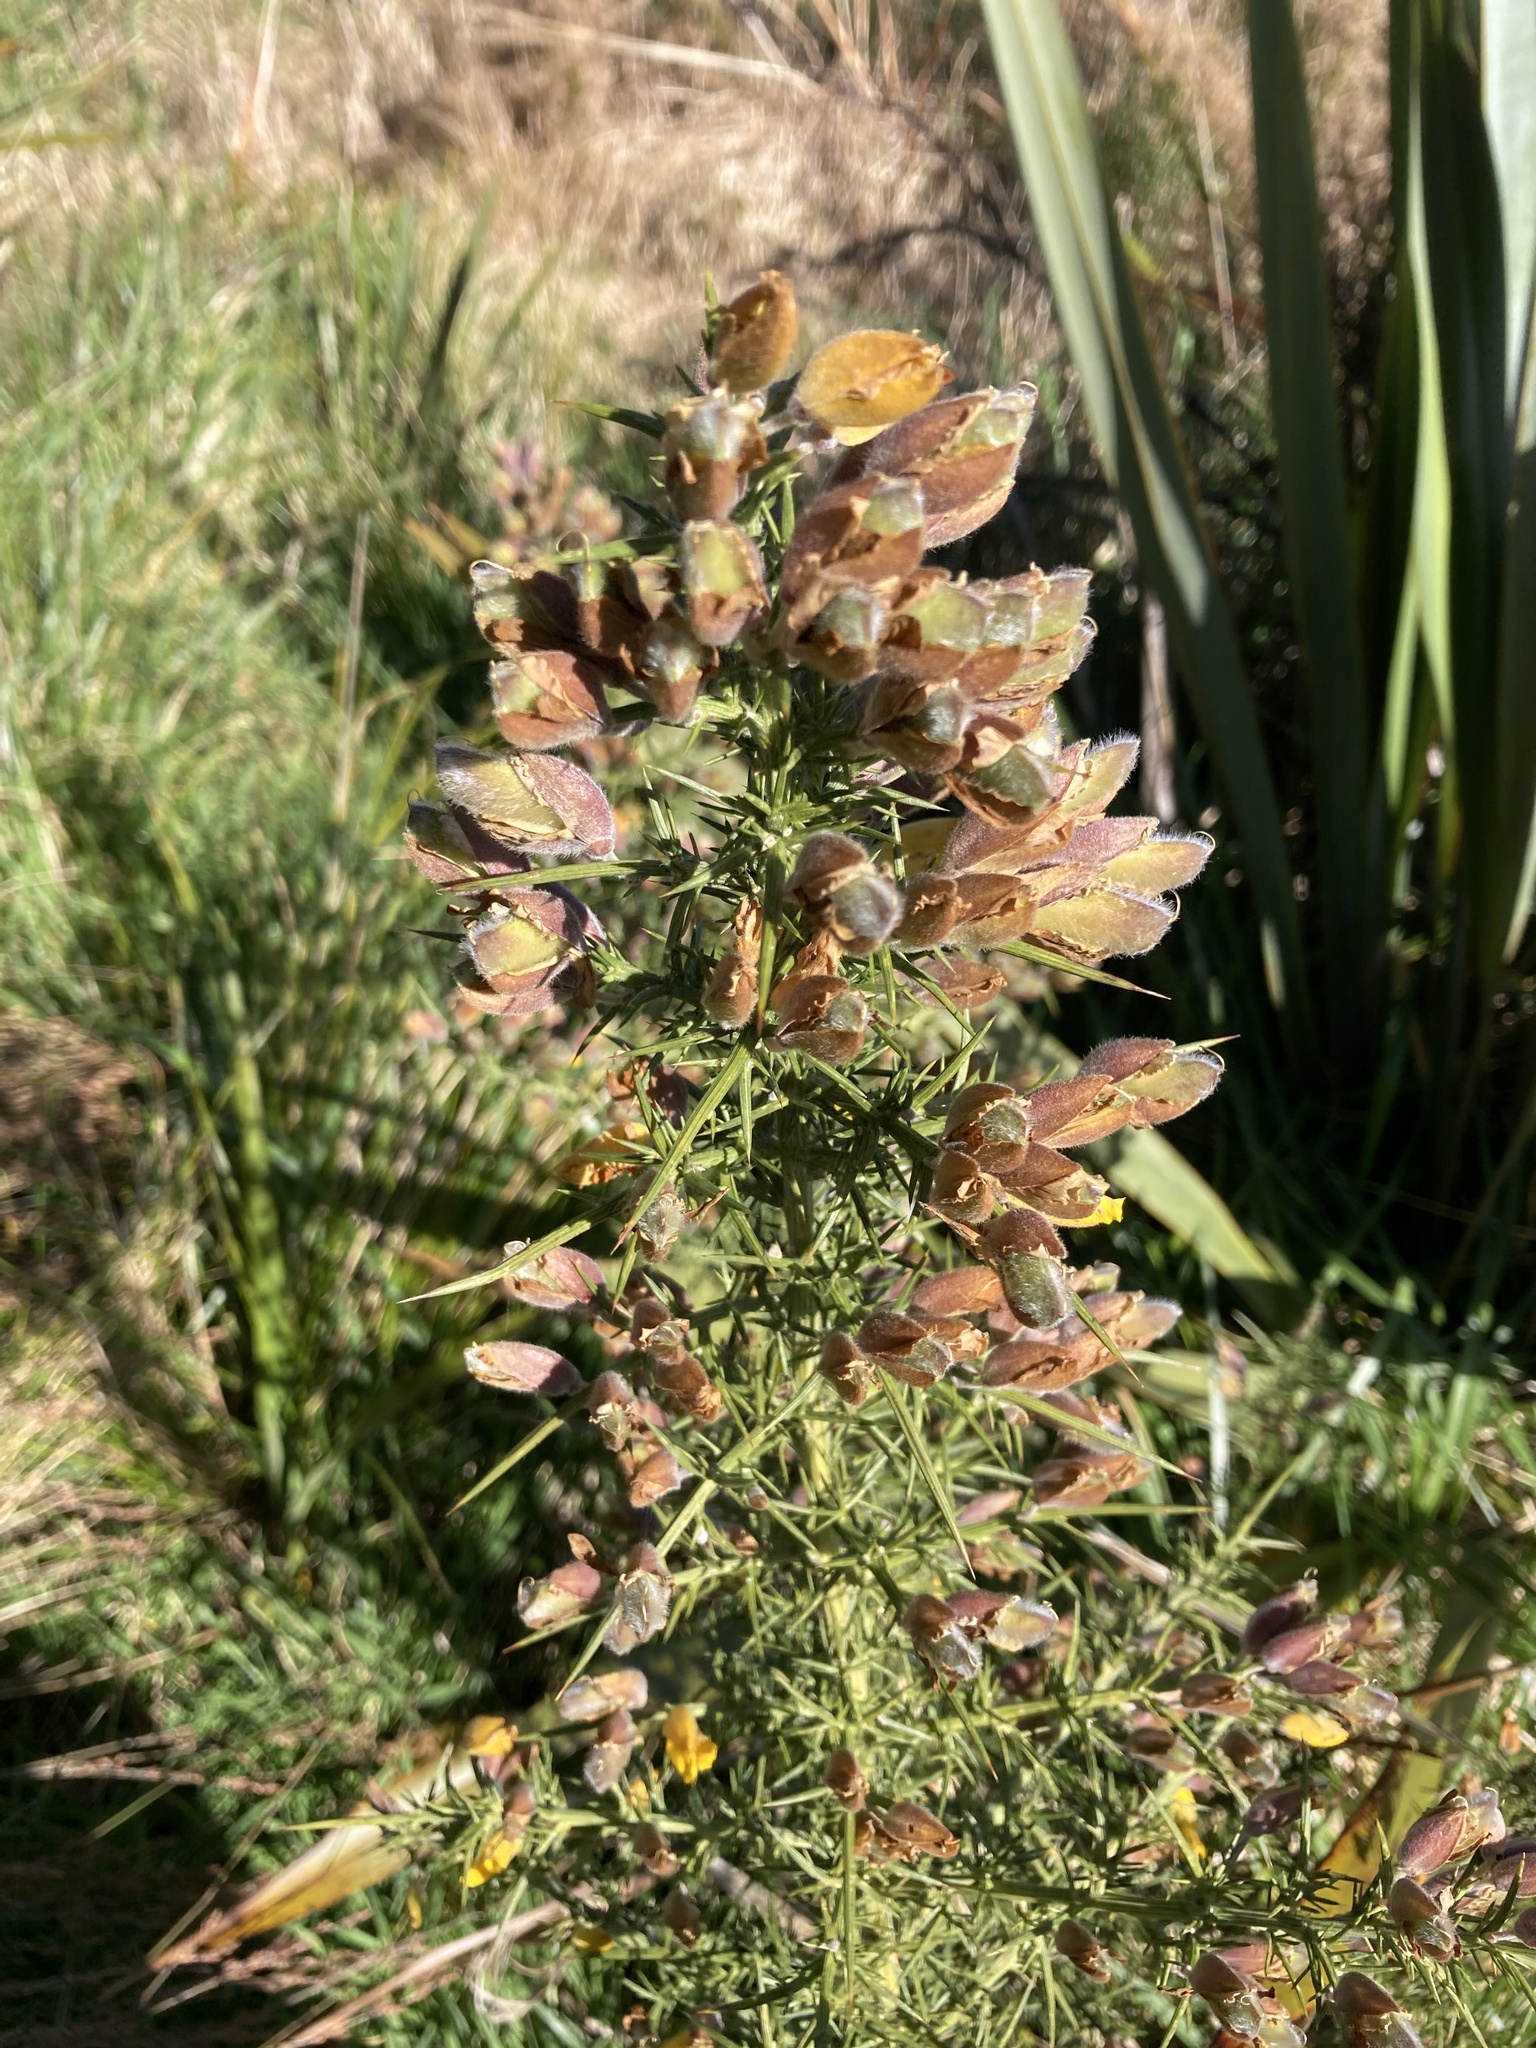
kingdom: Plantae
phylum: Tracheophyta
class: Magnoliopsida
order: Fabales
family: Fabaceae
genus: Ulex
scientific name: Ulex europaeus
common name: Common gorse
